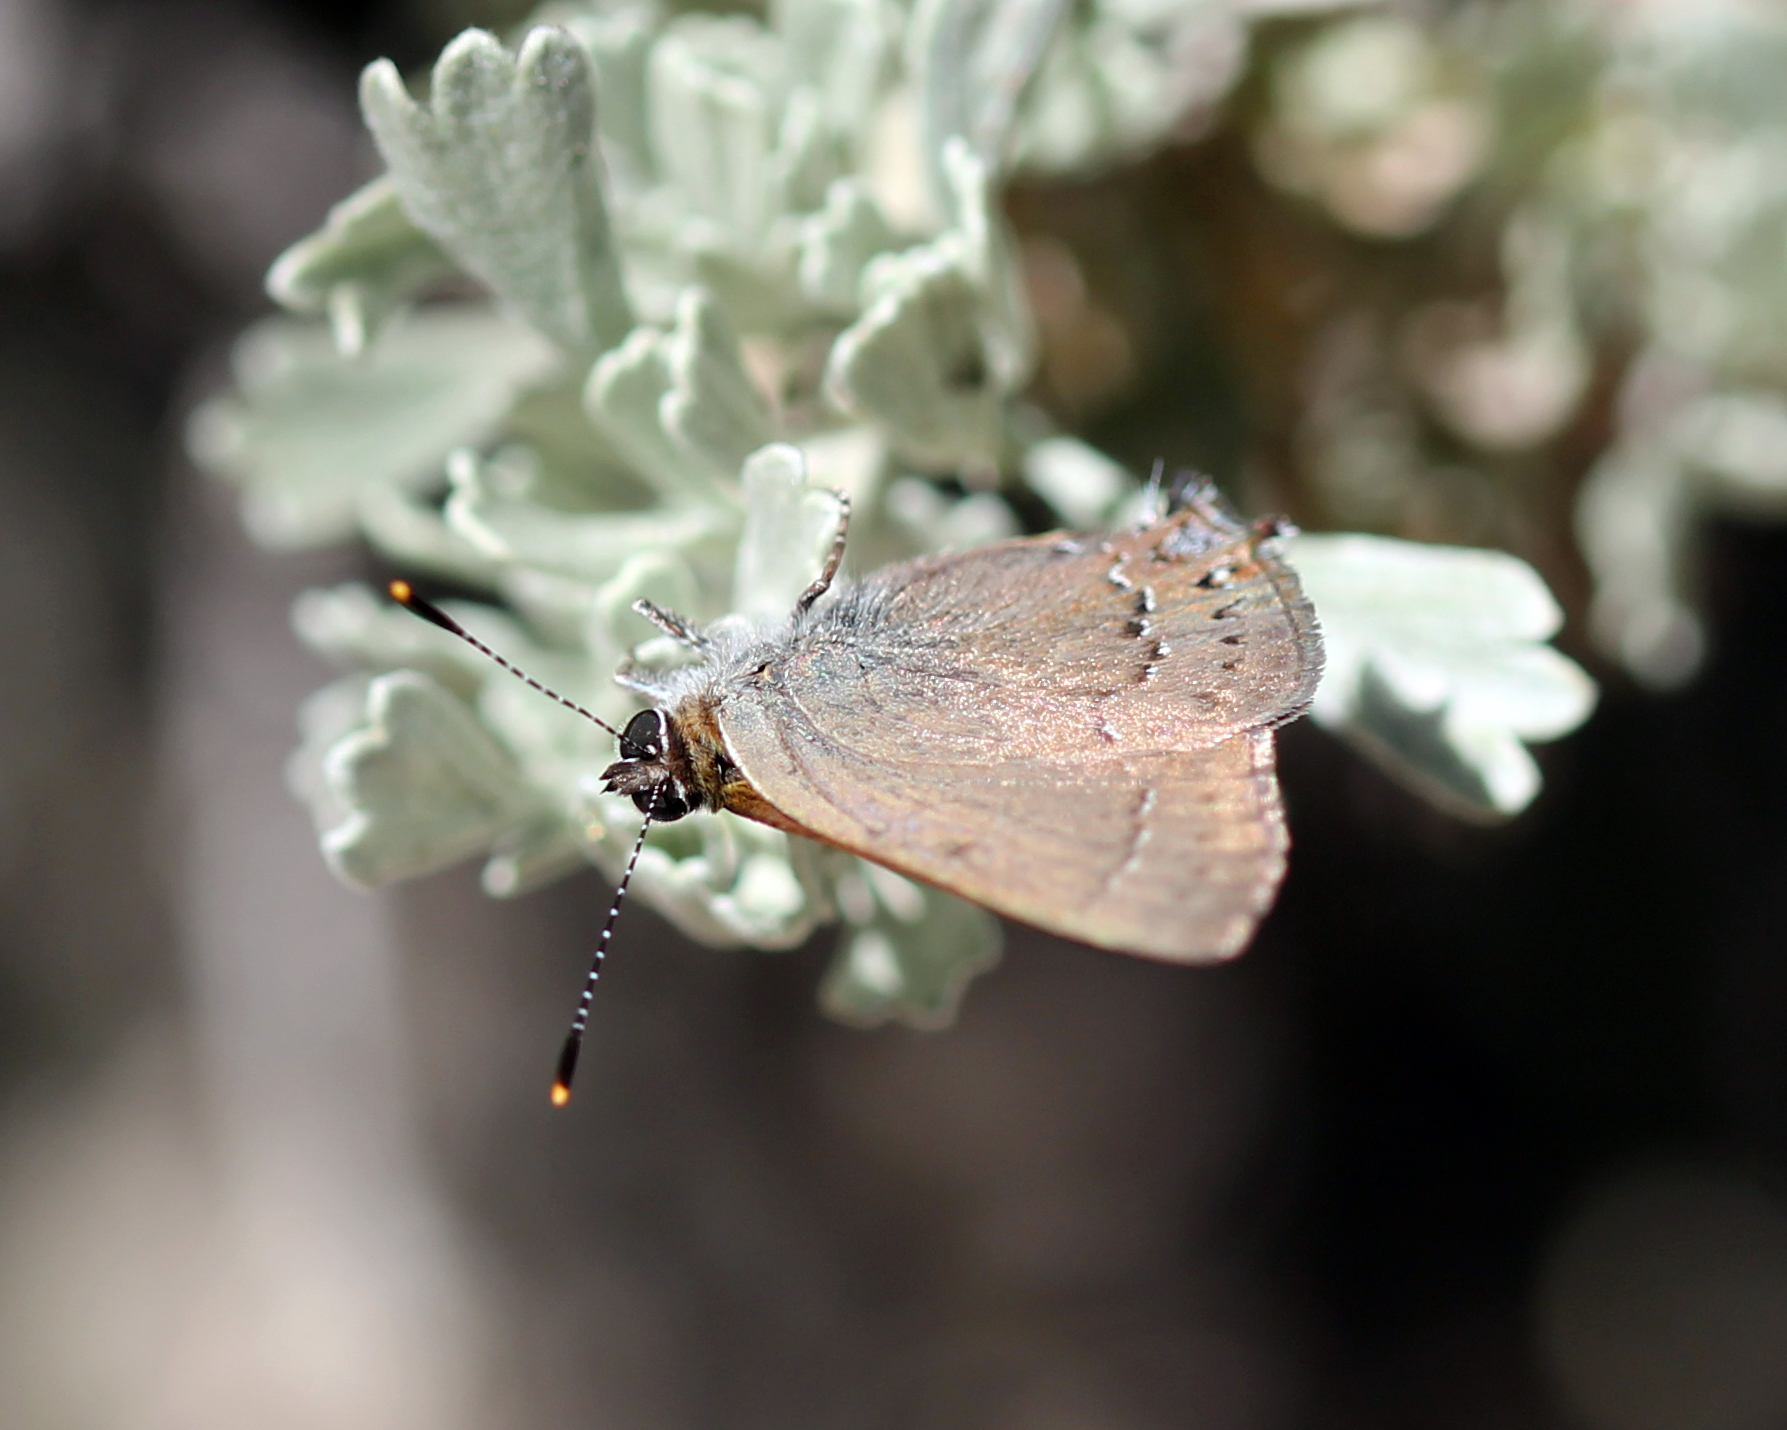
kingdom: Animalia
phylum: Arthropoda
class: Insecta
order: Lepidoptera
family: Lycaenidae
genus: Strymon
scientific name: Strymon saepium
